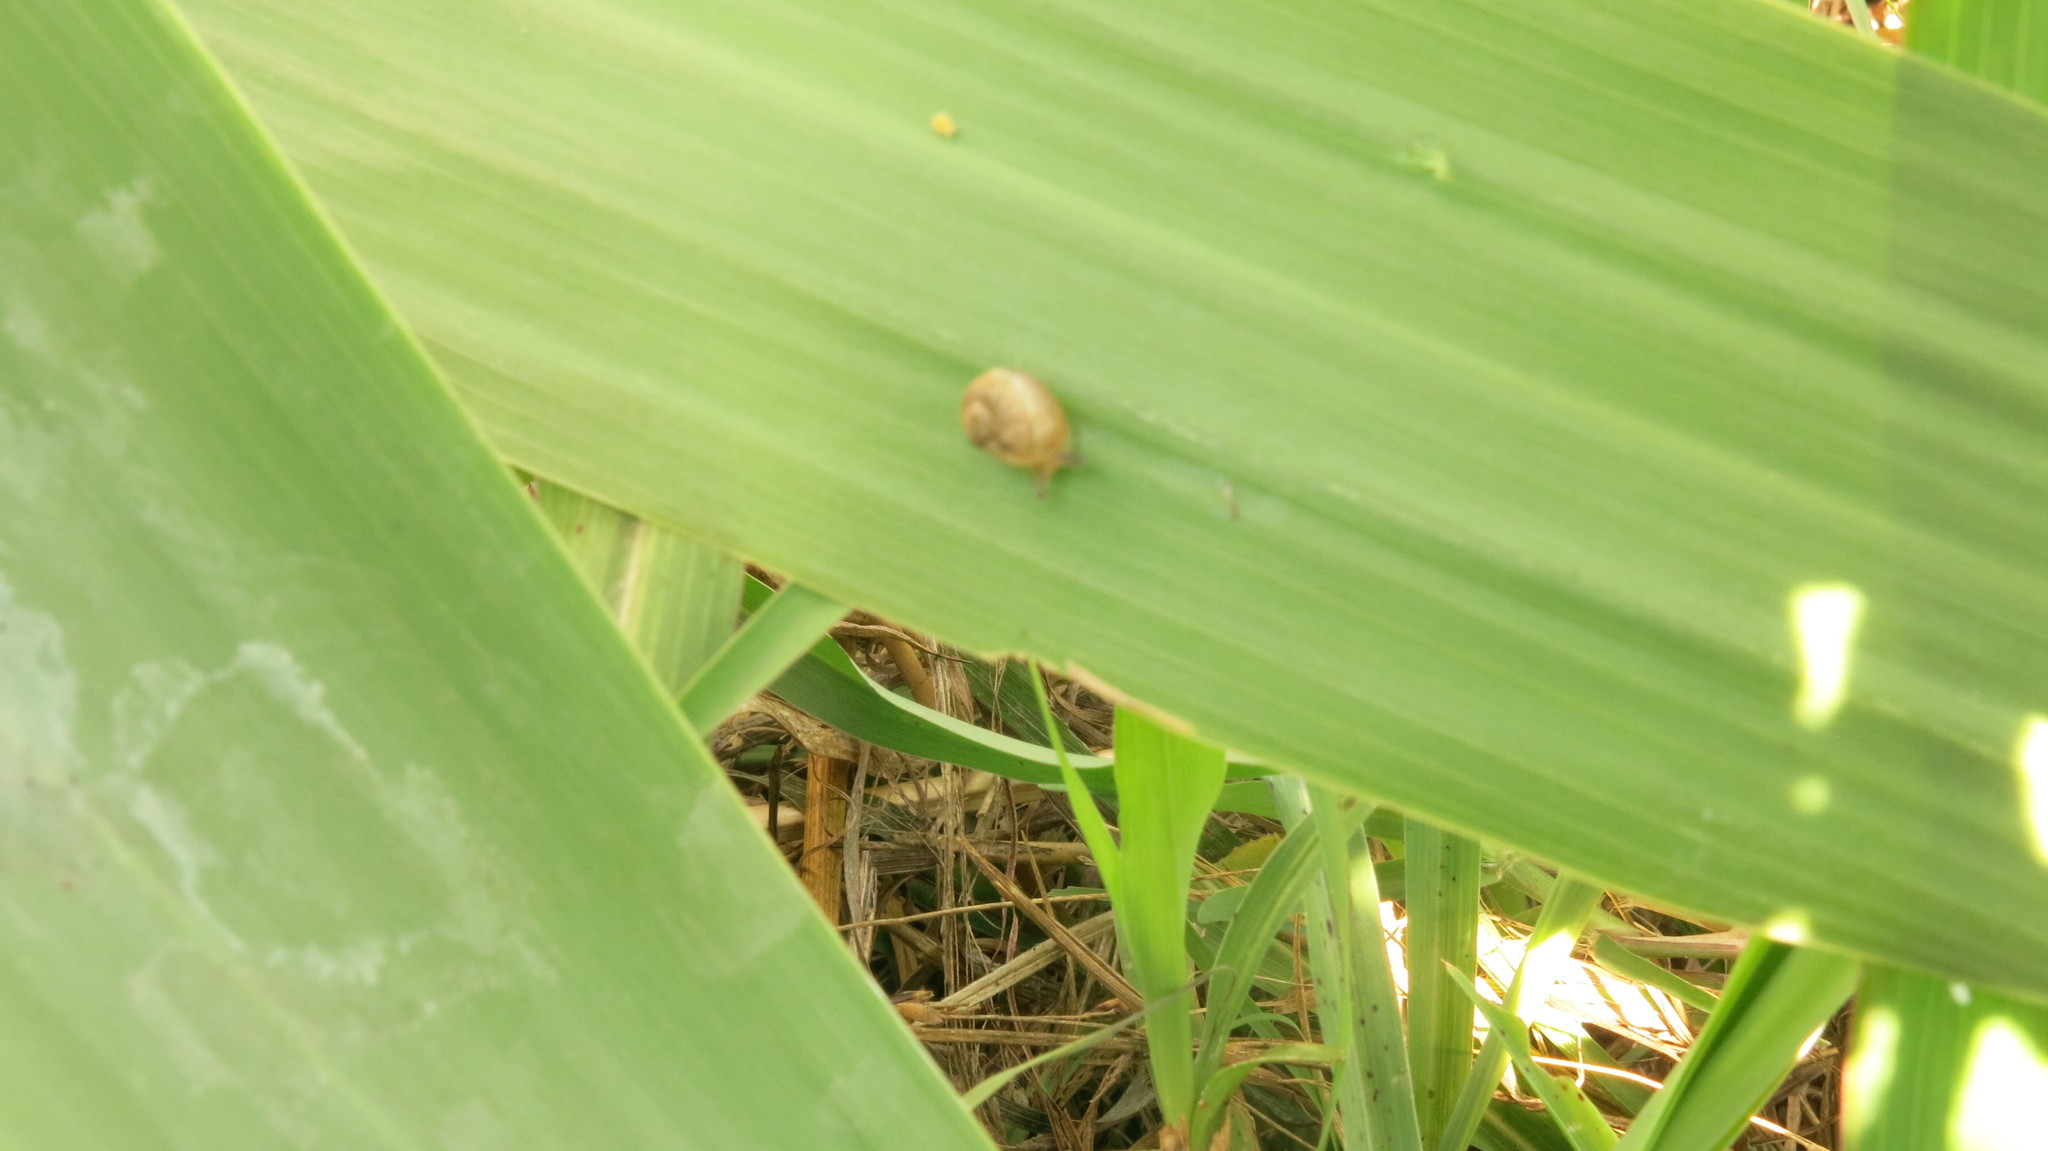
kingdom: Animalia
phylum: Mollusca
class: Gastropoda
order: Stylommatophora
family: Helicidae
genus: Cornu
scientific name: Cornu aspersum
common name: Brown garden snail
